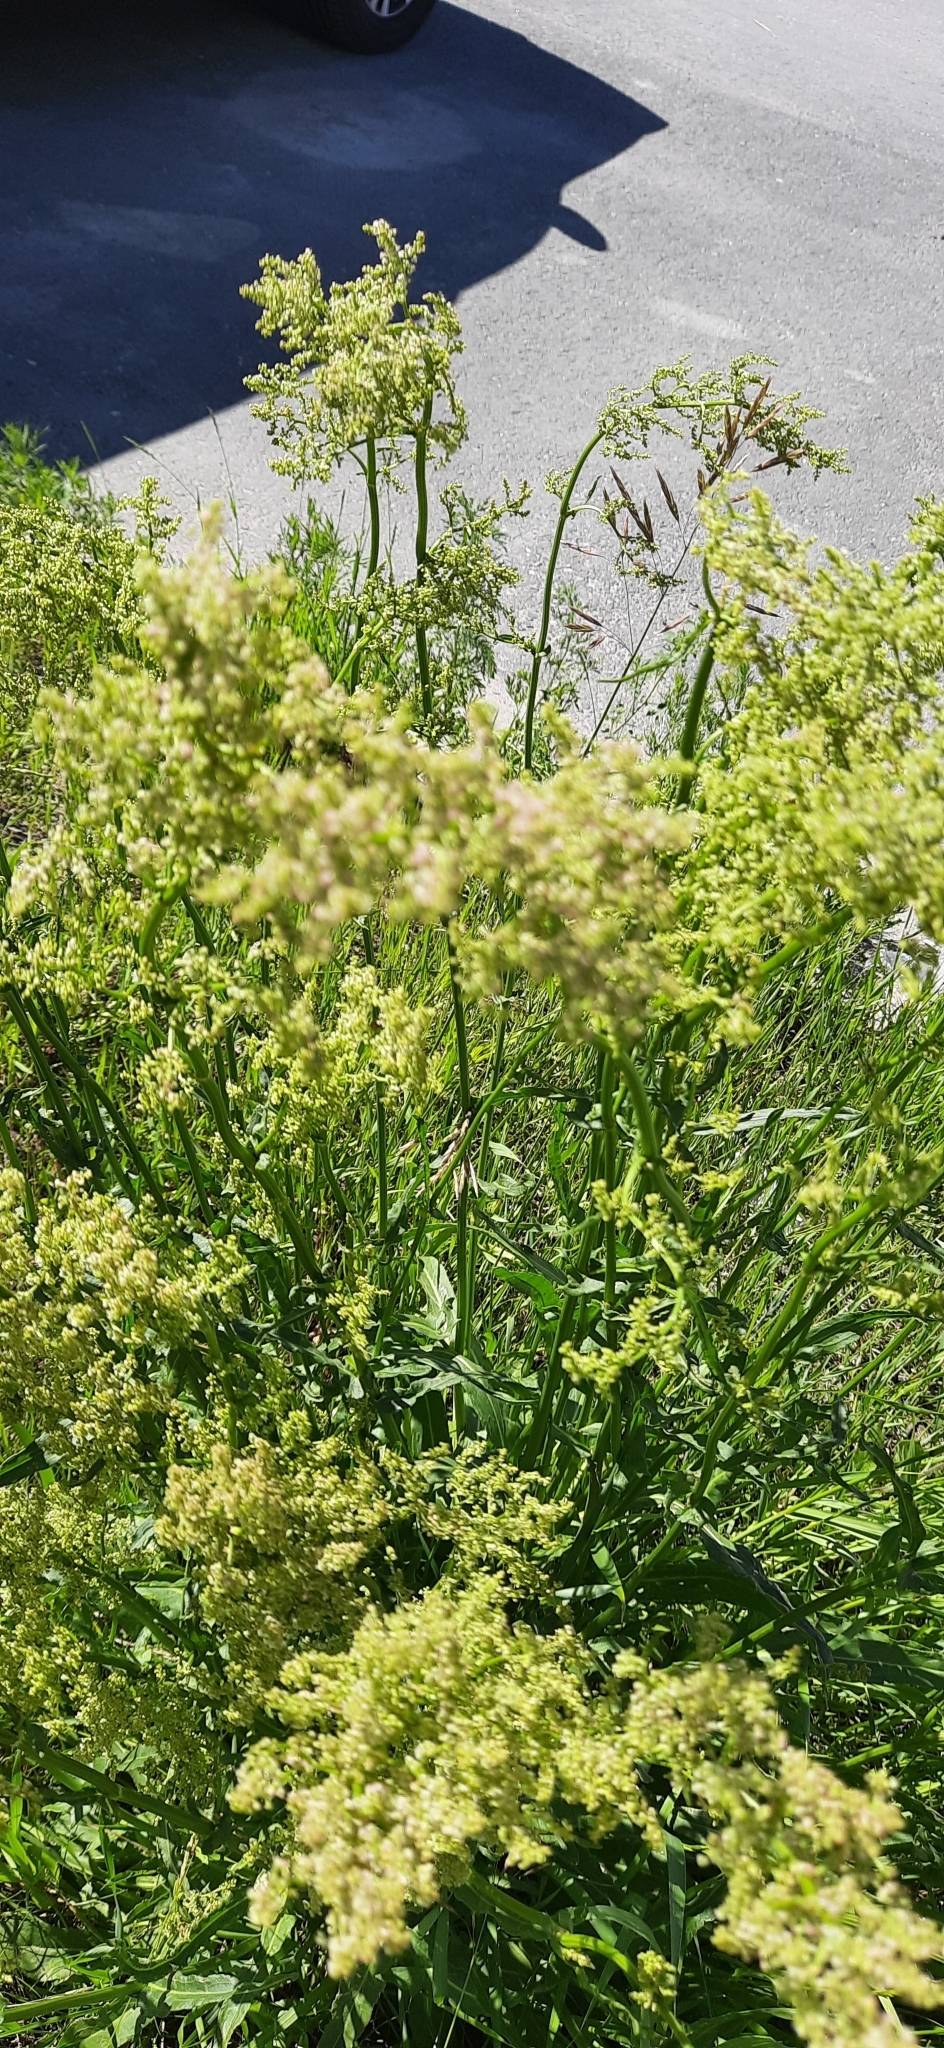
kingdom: Plantae
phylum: Tracheophyta
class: Magnoliopsida
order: Gentianales
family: Rubiaceae
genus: Galium
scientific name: Galium mollugo
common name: Hedge bedstraw
